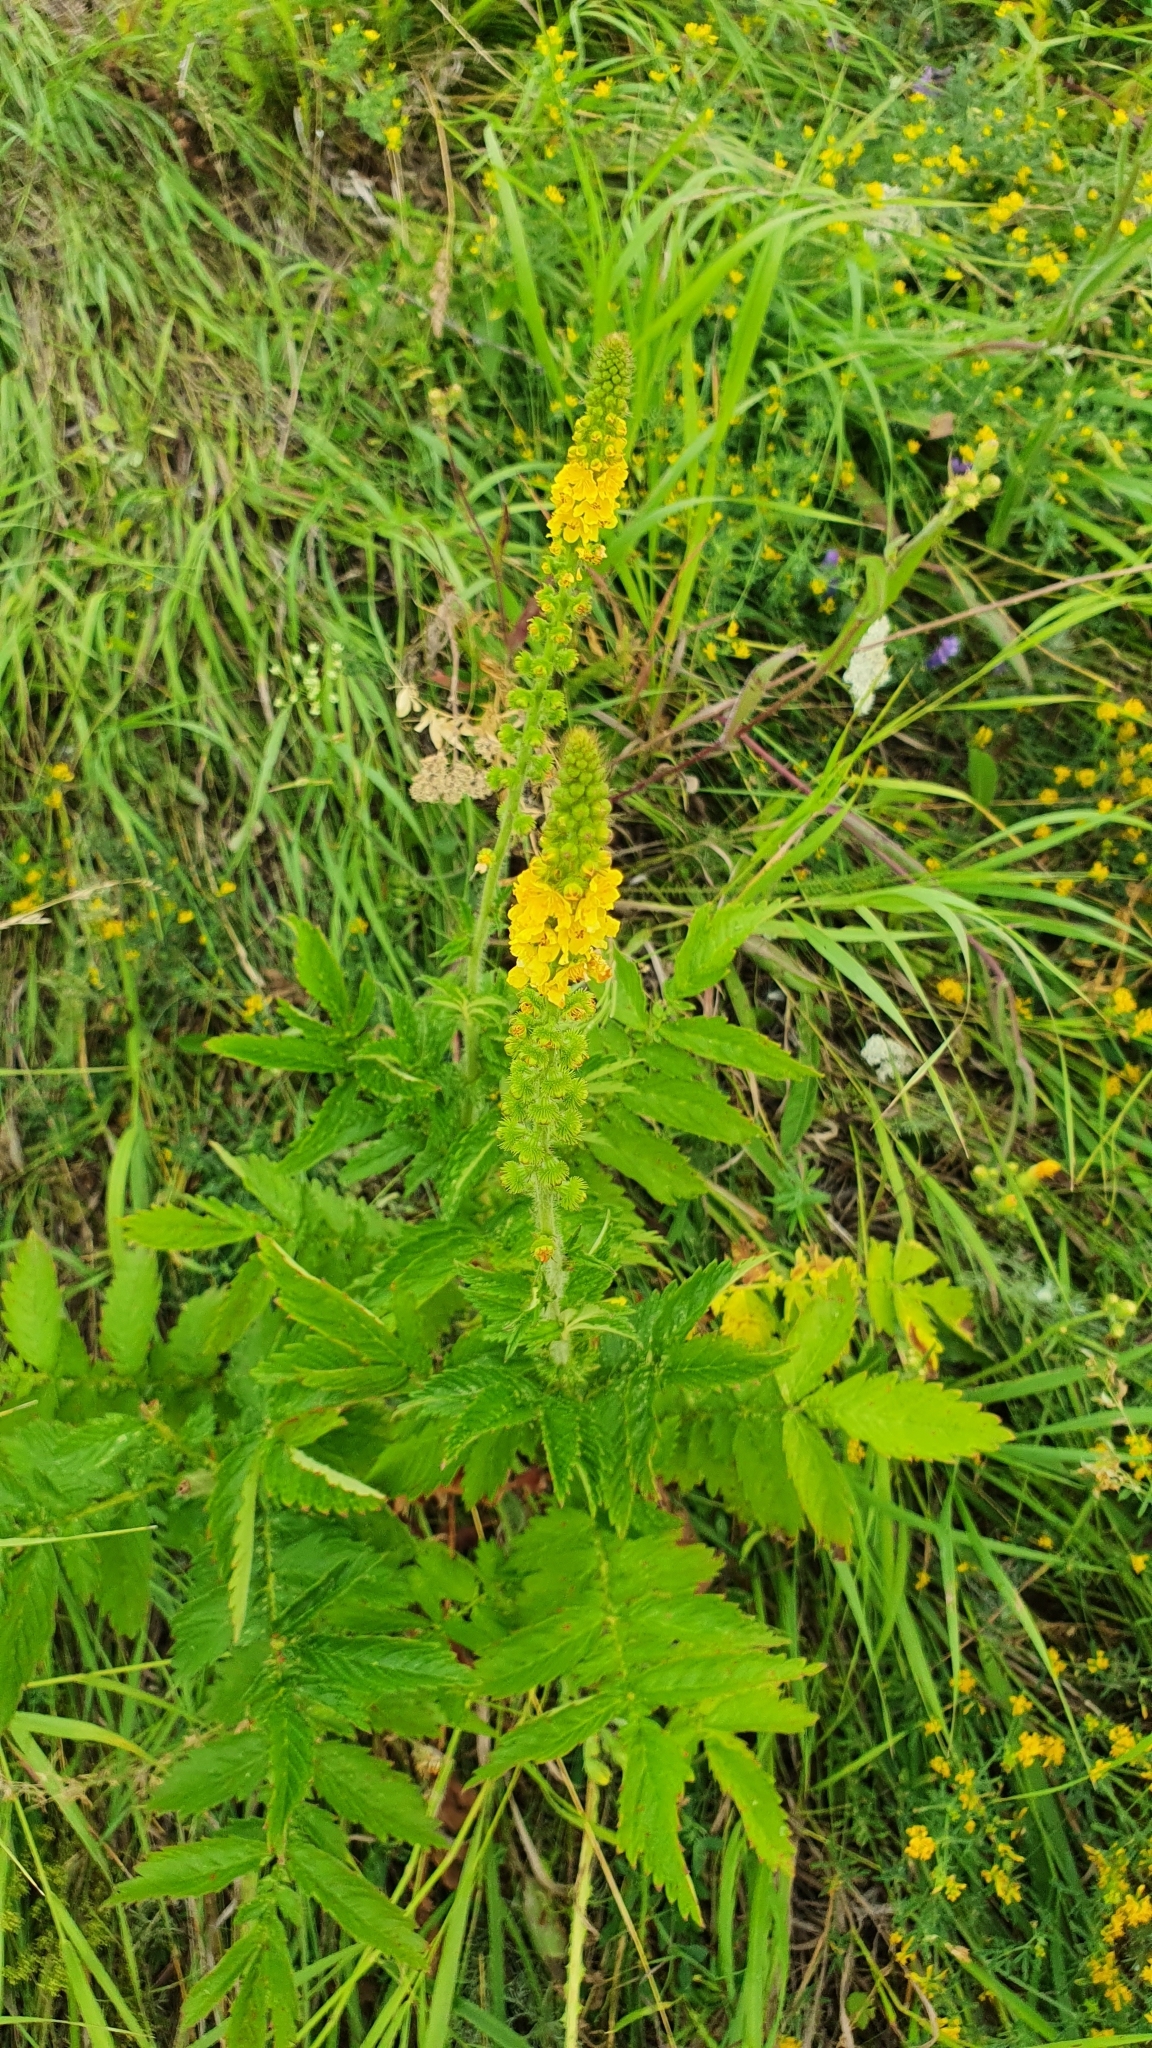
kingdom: Plantae
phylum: Tracheophyta
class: Magnoliopsida
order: Rosales
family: Rosaceae
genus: Agrimonia
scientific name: Agrimonia eupatoria
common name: Agrimony
